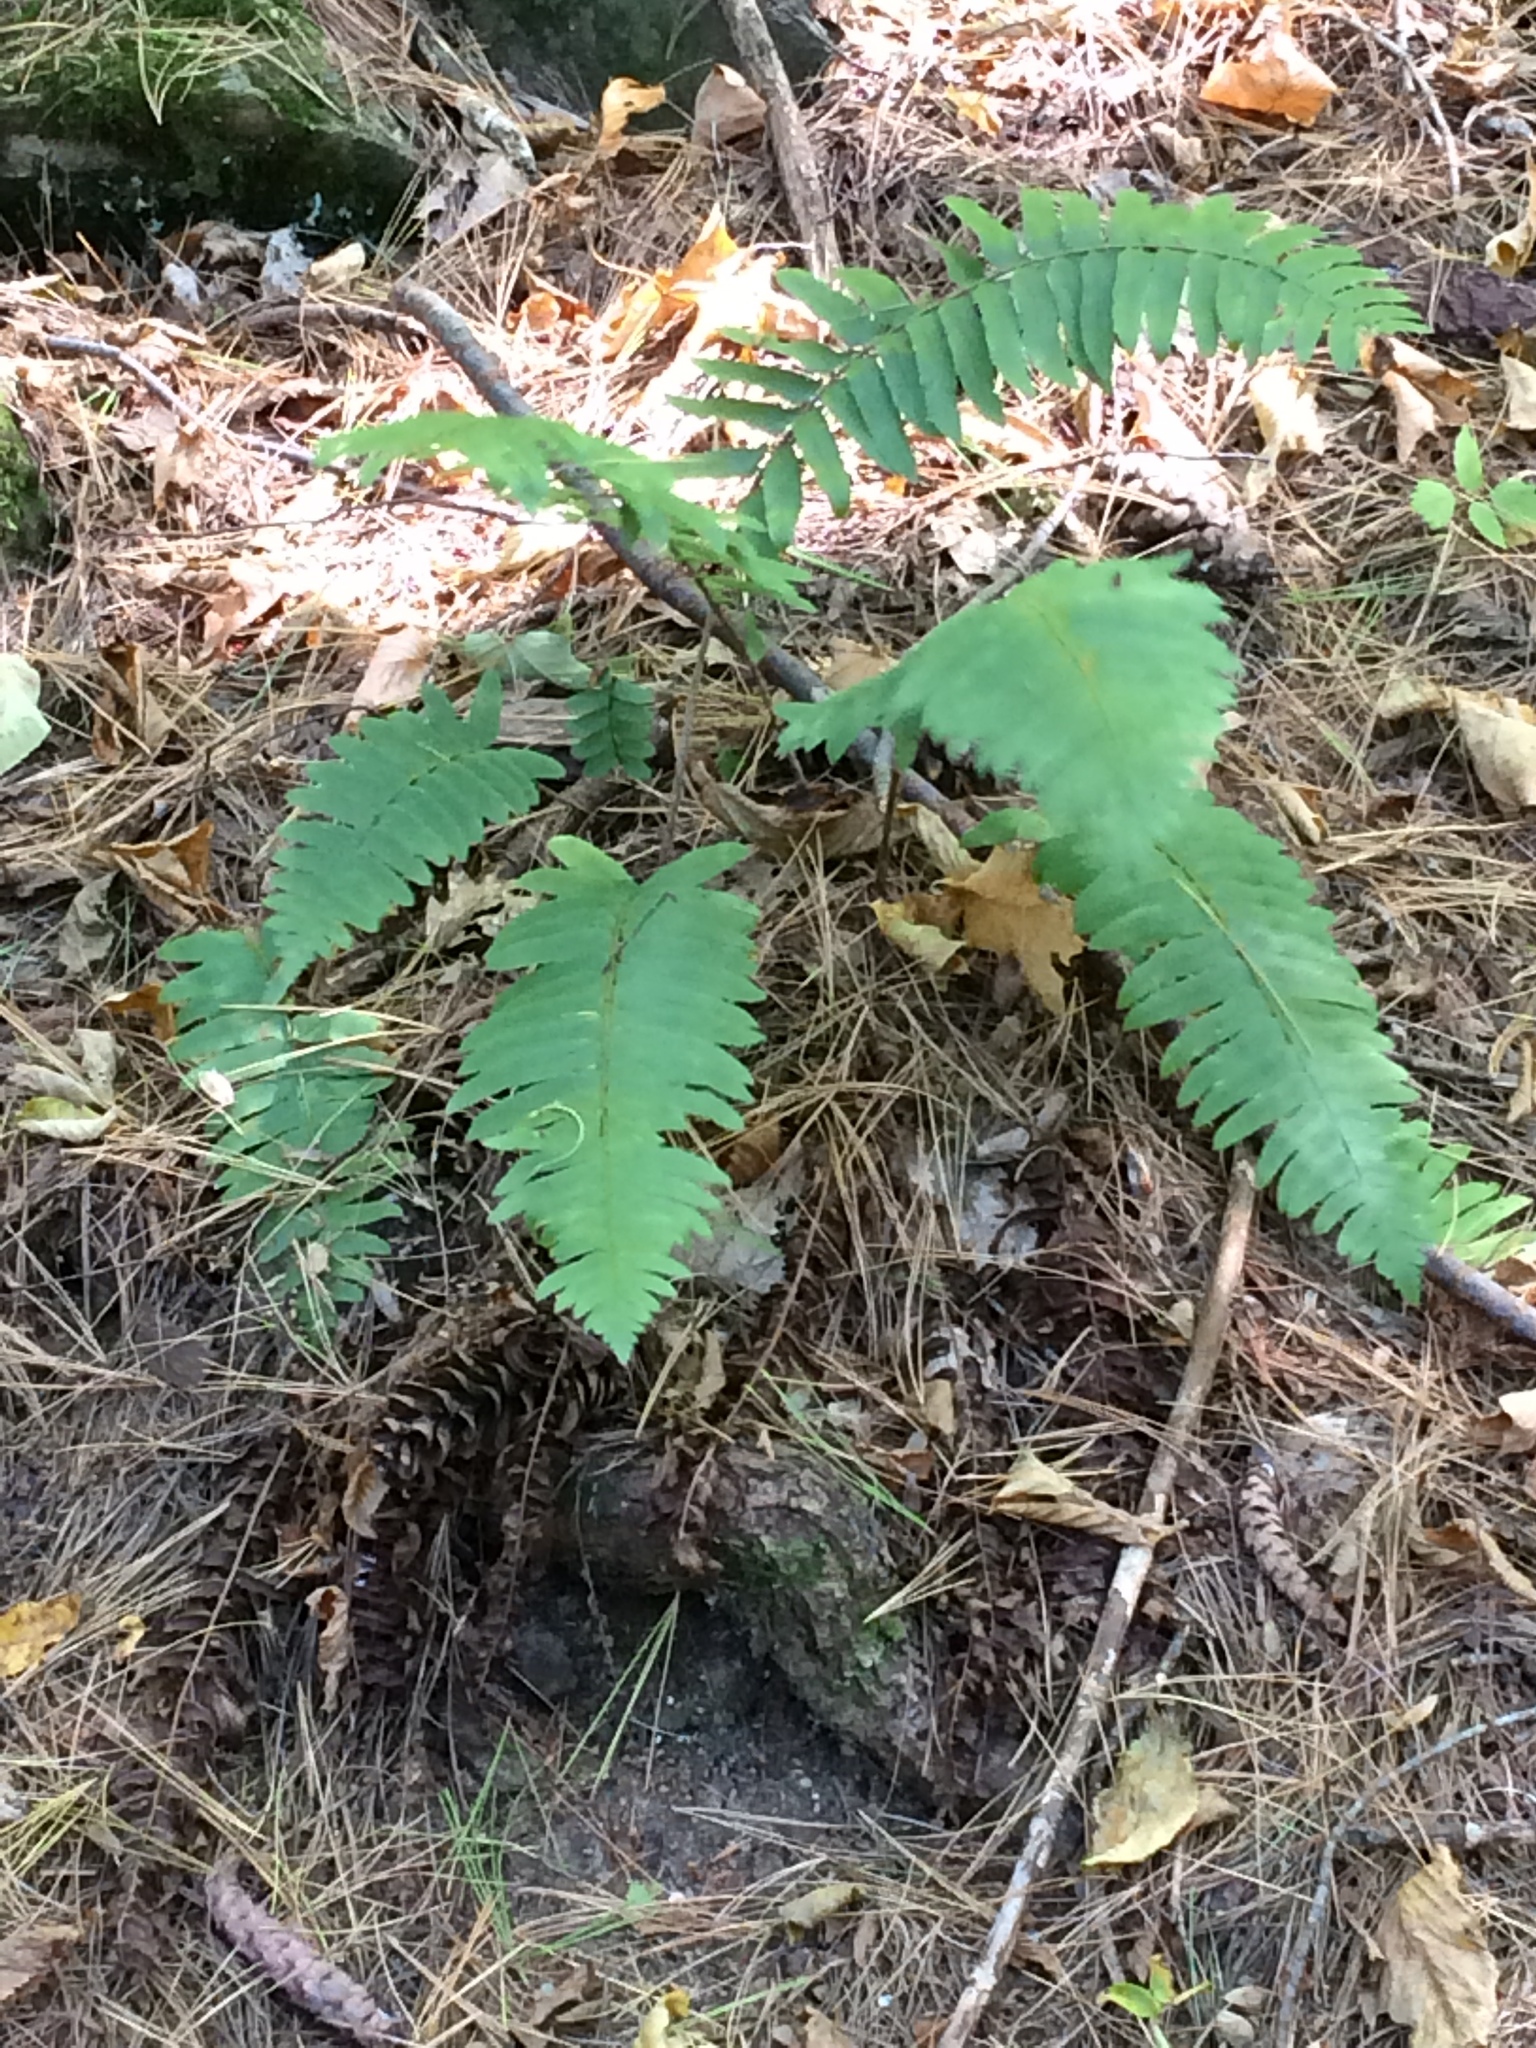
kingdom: Plantae
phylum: Tracheophyta
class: Polypodiopsida
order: Polypodiales
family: Dryopteridaceae
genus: Polystichum
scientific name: Polystichum acrostichoides
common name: Christmas fern
